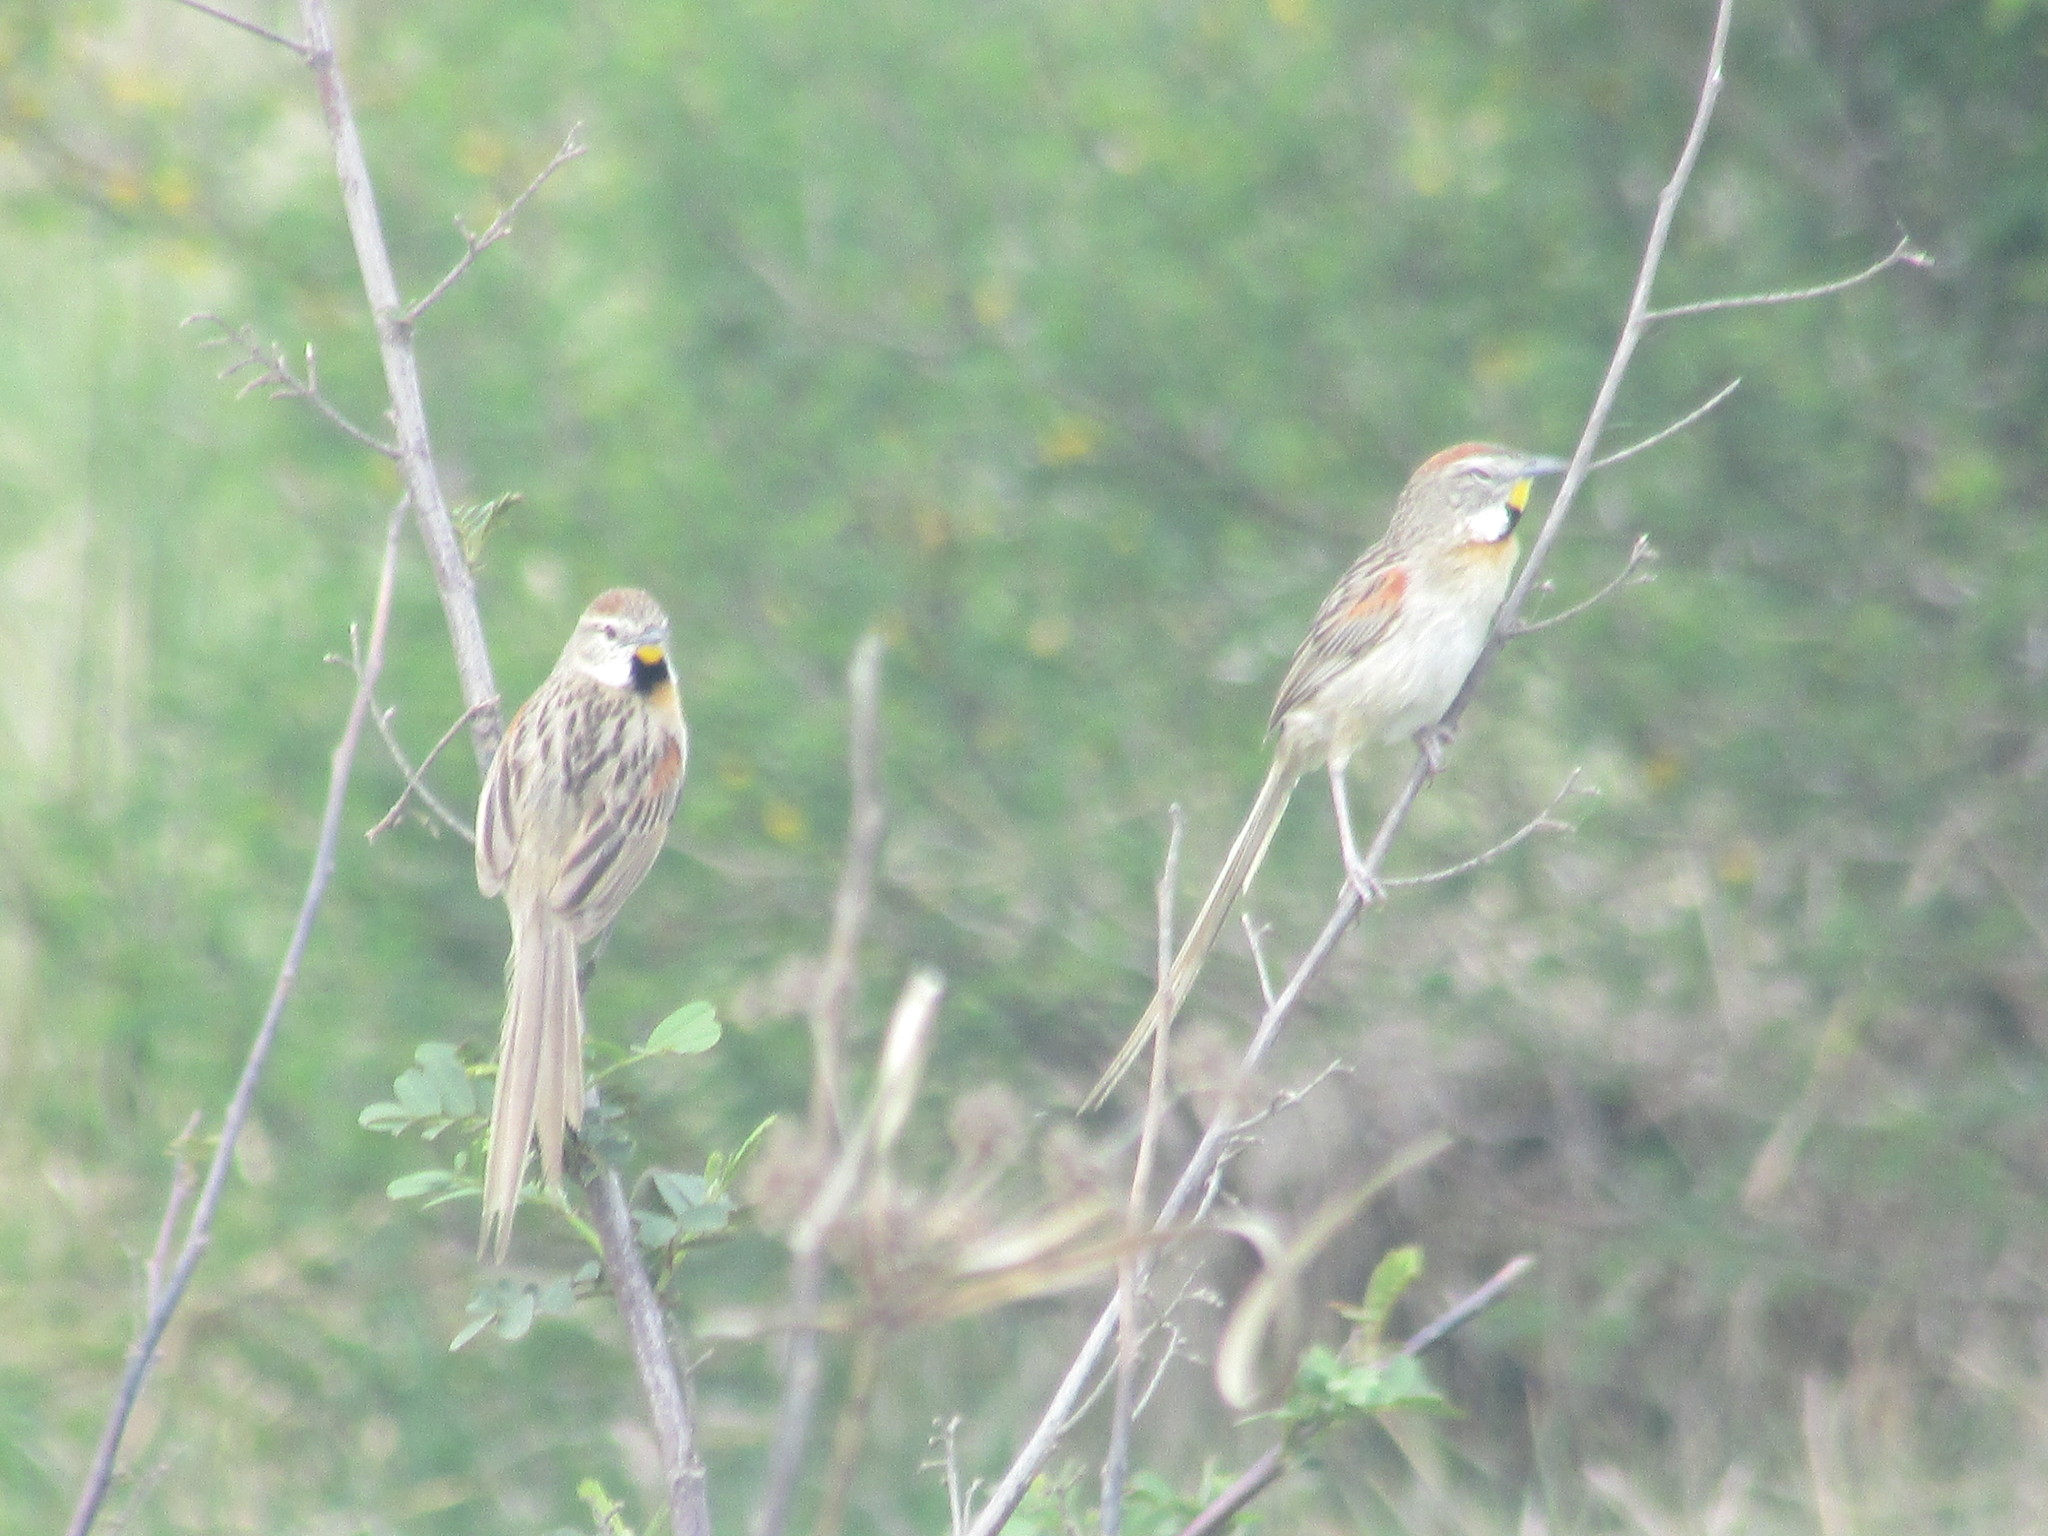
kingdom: Animalia
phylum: Chordata
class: Aves
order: Passeriformes
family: Furnariidae
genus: Schoeniophylax
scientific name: Schoeniophylax phryganophilus
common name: Chotoy spinetail
